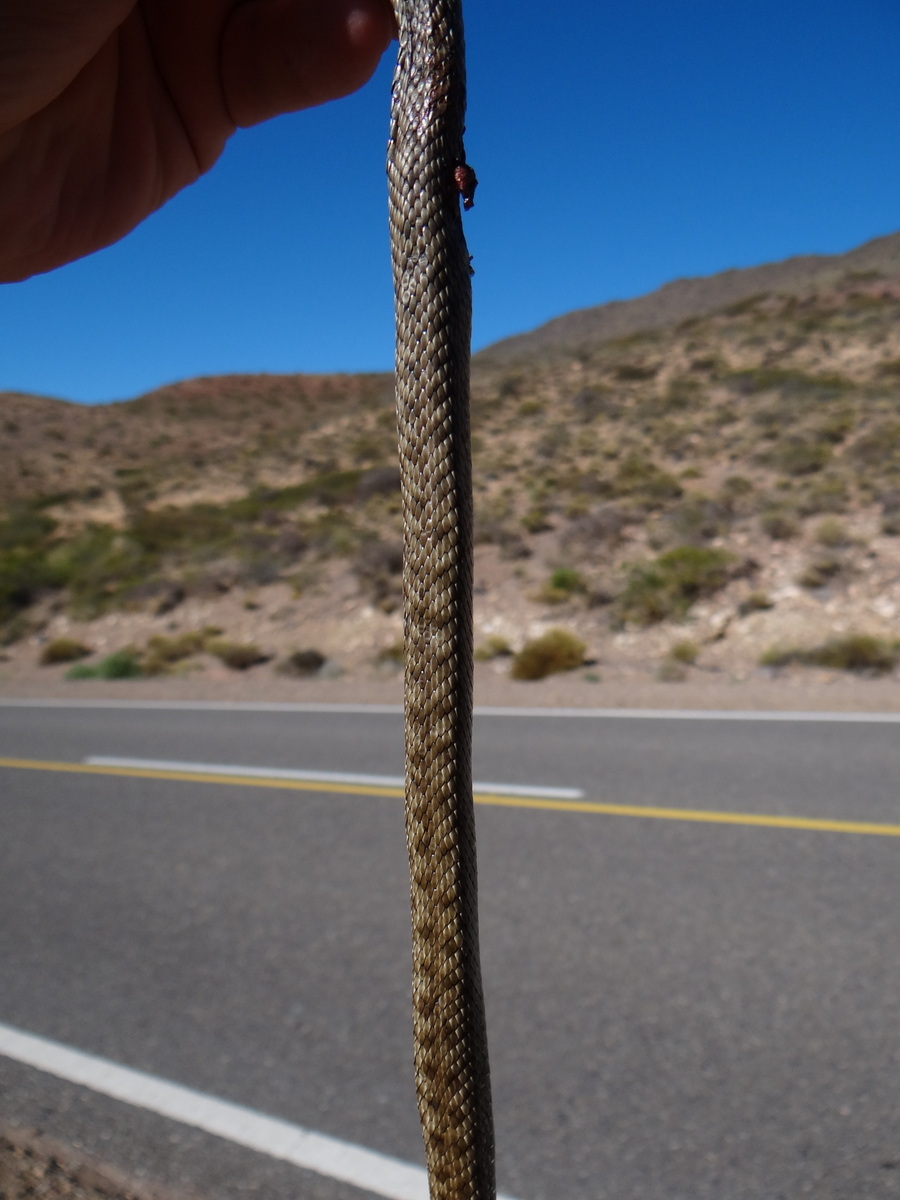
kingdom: Animalia
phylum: Chordata
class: Squamata
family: Colubridae
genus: Philodryas
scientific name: Philodryas patagoniensis
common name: Patagonia green racer
